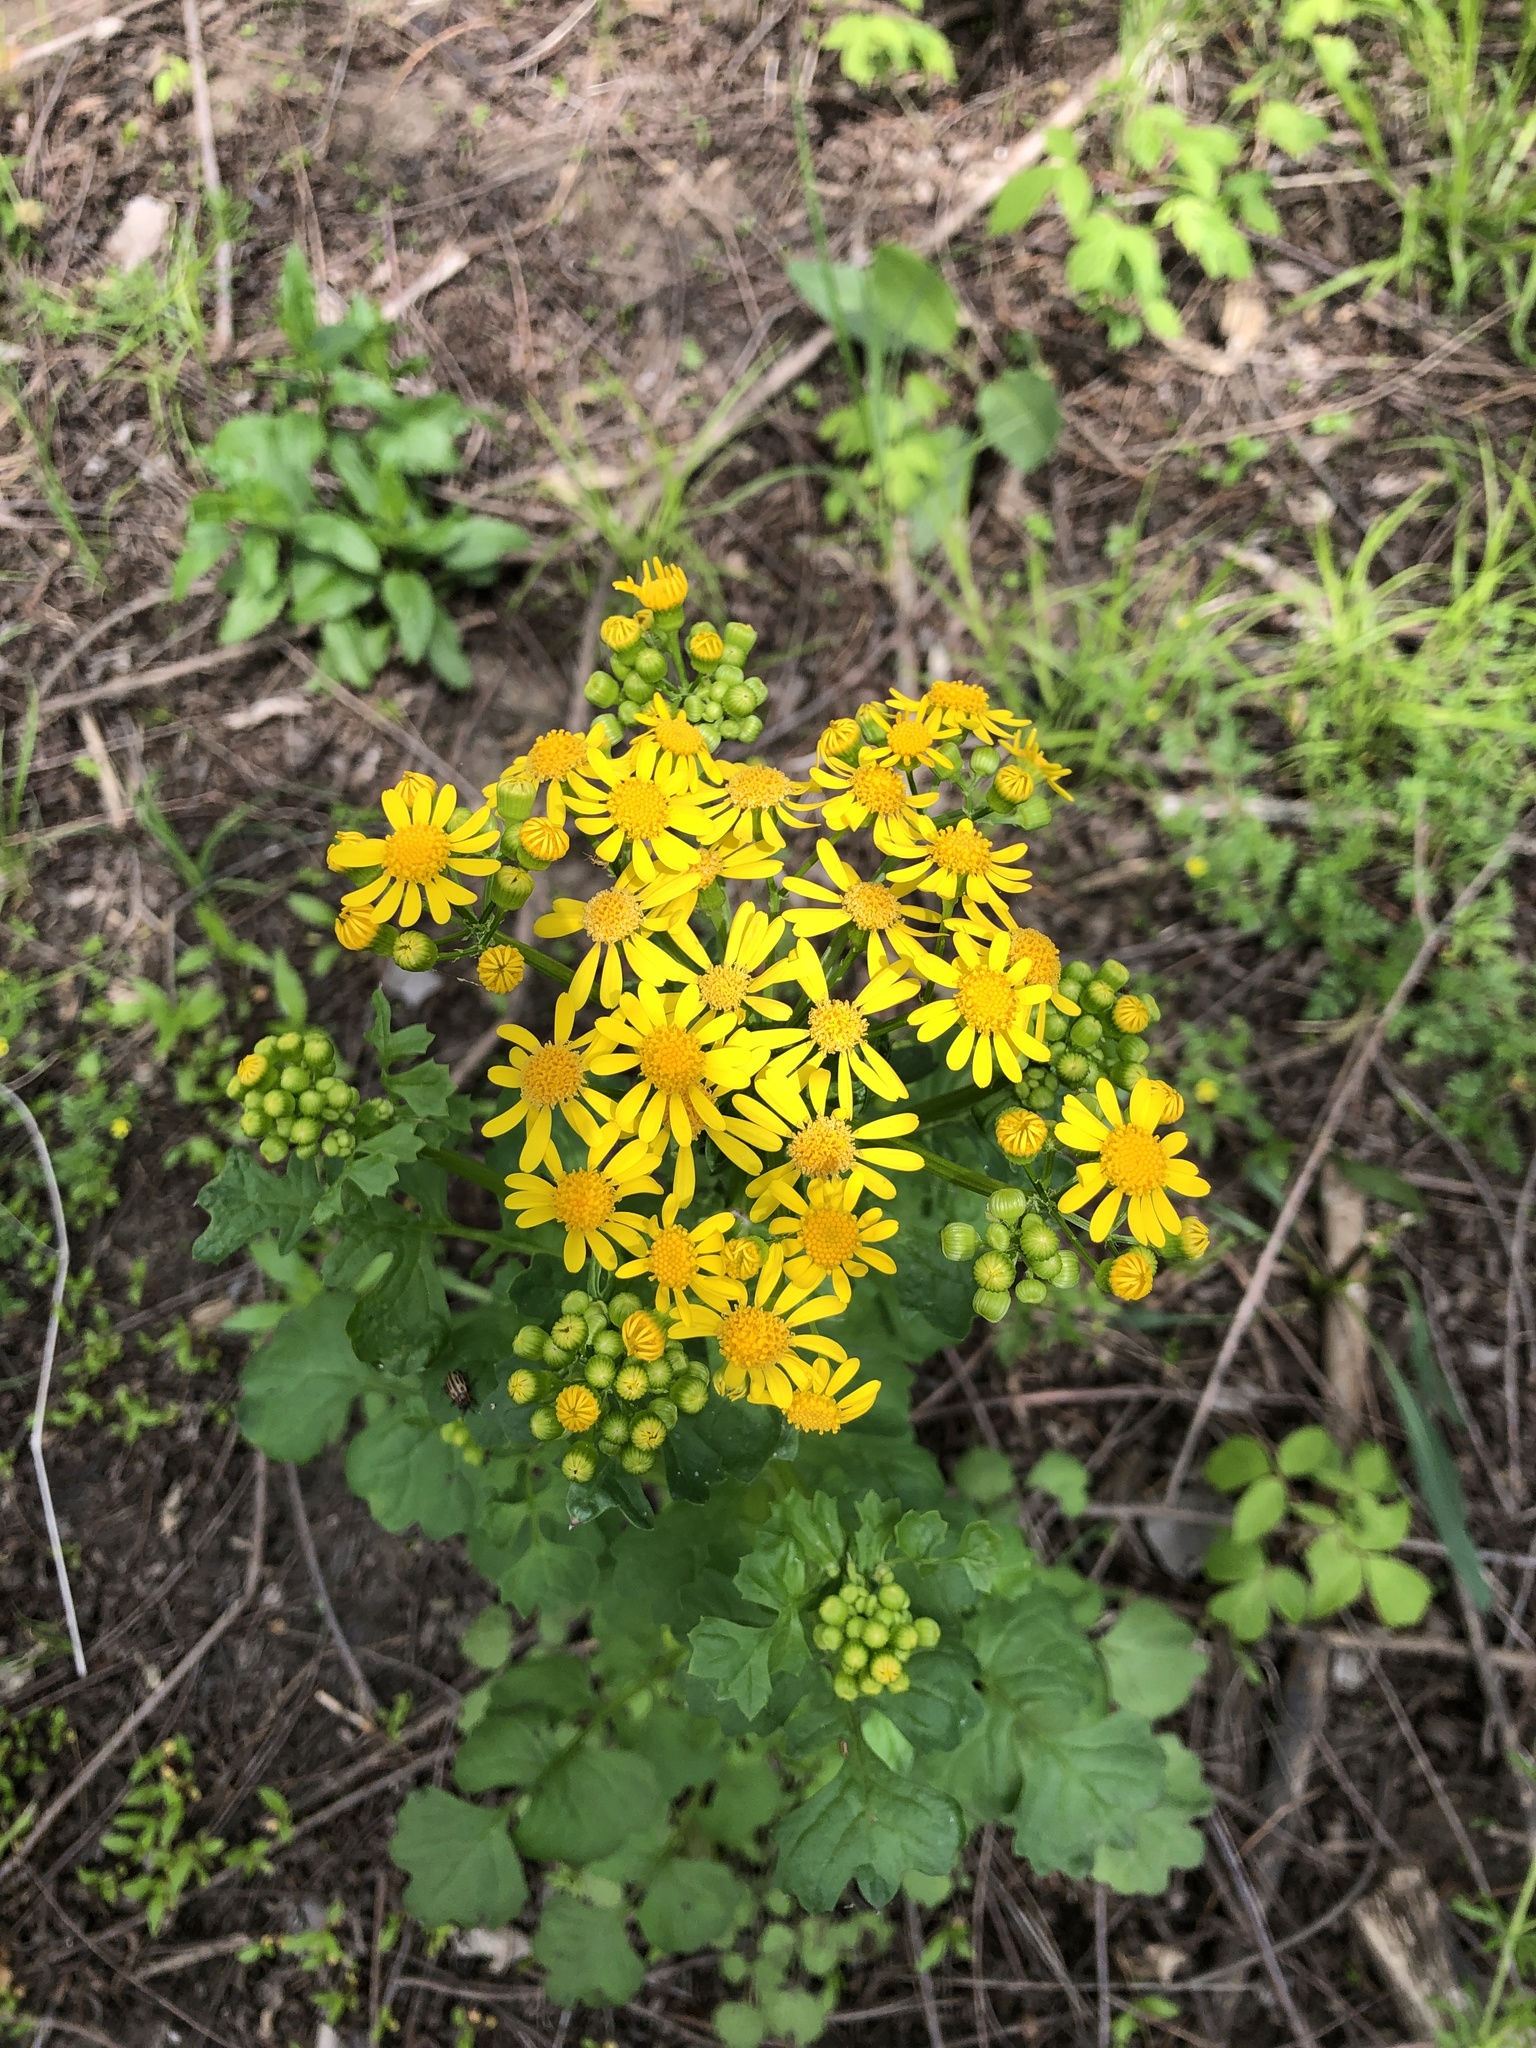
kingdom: Plantae
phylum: Tracheophyta
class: Magnoliopsida
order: Asterales
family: Asteraceae
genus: Packera
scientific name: Packera glabella
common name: Butterweed
